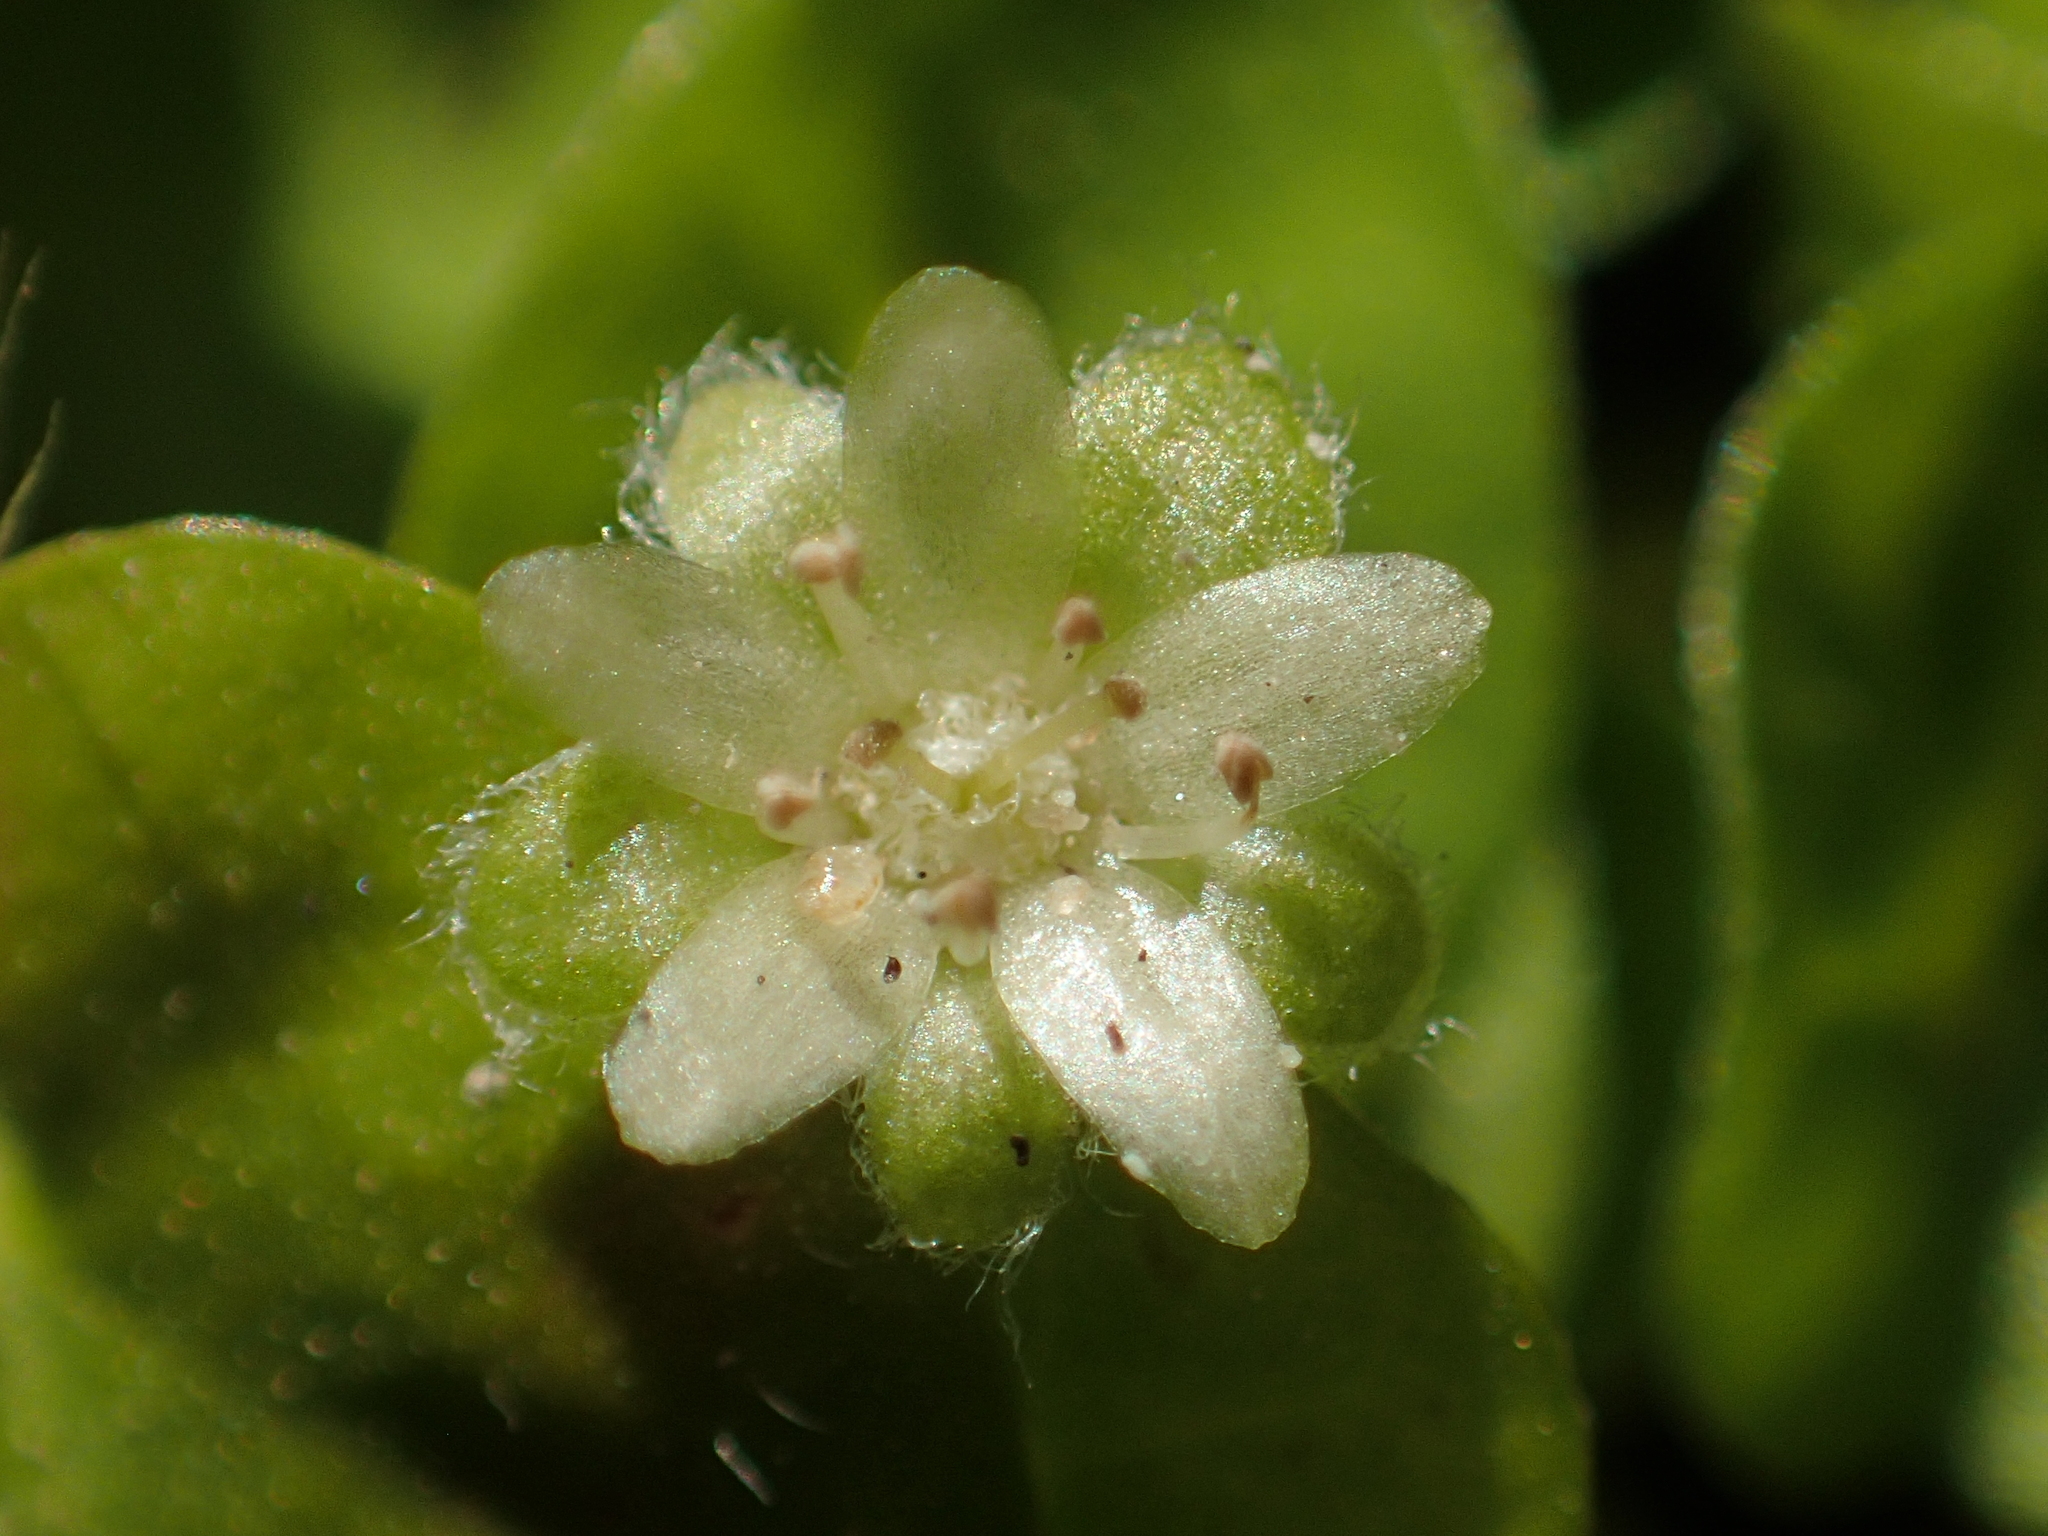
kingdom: Plantae
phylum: Tracheophyta
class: Magnoliopsida
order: Solanales
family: Convolvulaceae
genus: Dichondra
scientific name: Dichondra micrantha
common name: Kidneyweed
